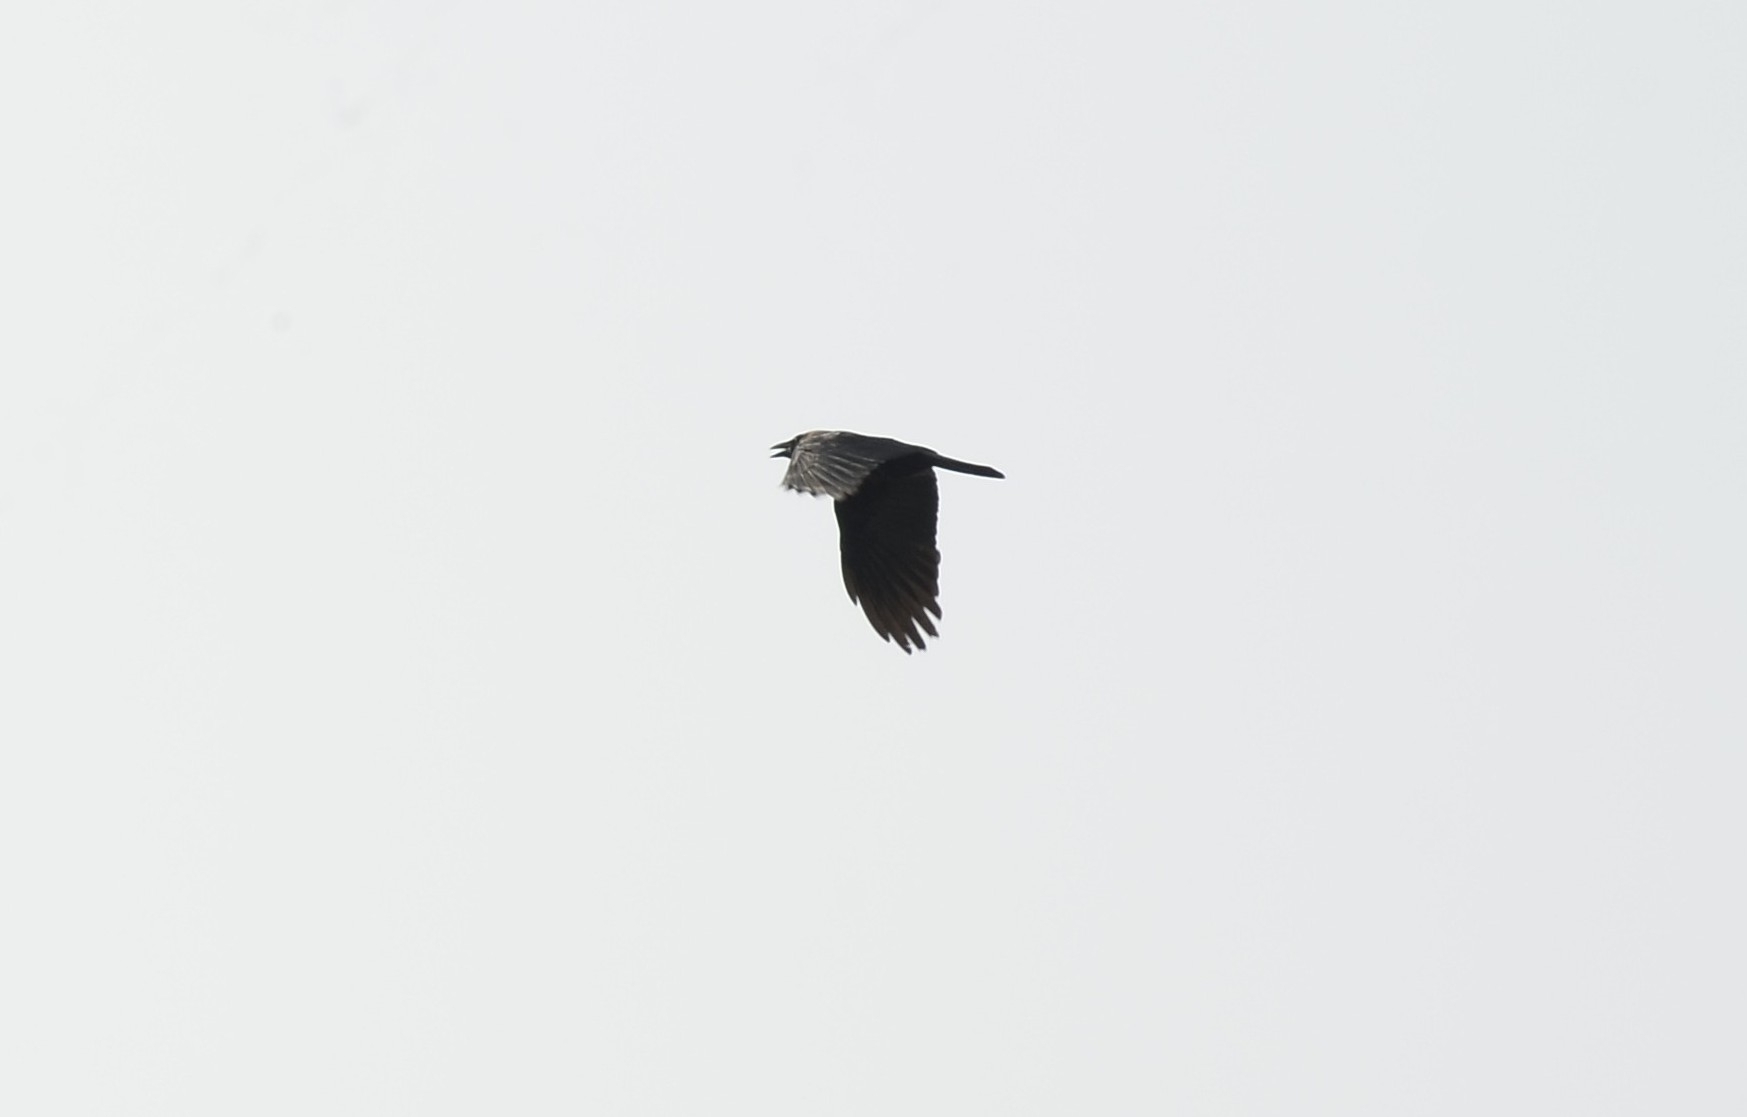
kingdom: Animalia
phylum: Chordata
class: Aves
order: Passeriformes
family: Corvidae
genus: Corvus
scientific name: Corvus splendens
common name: House crow
